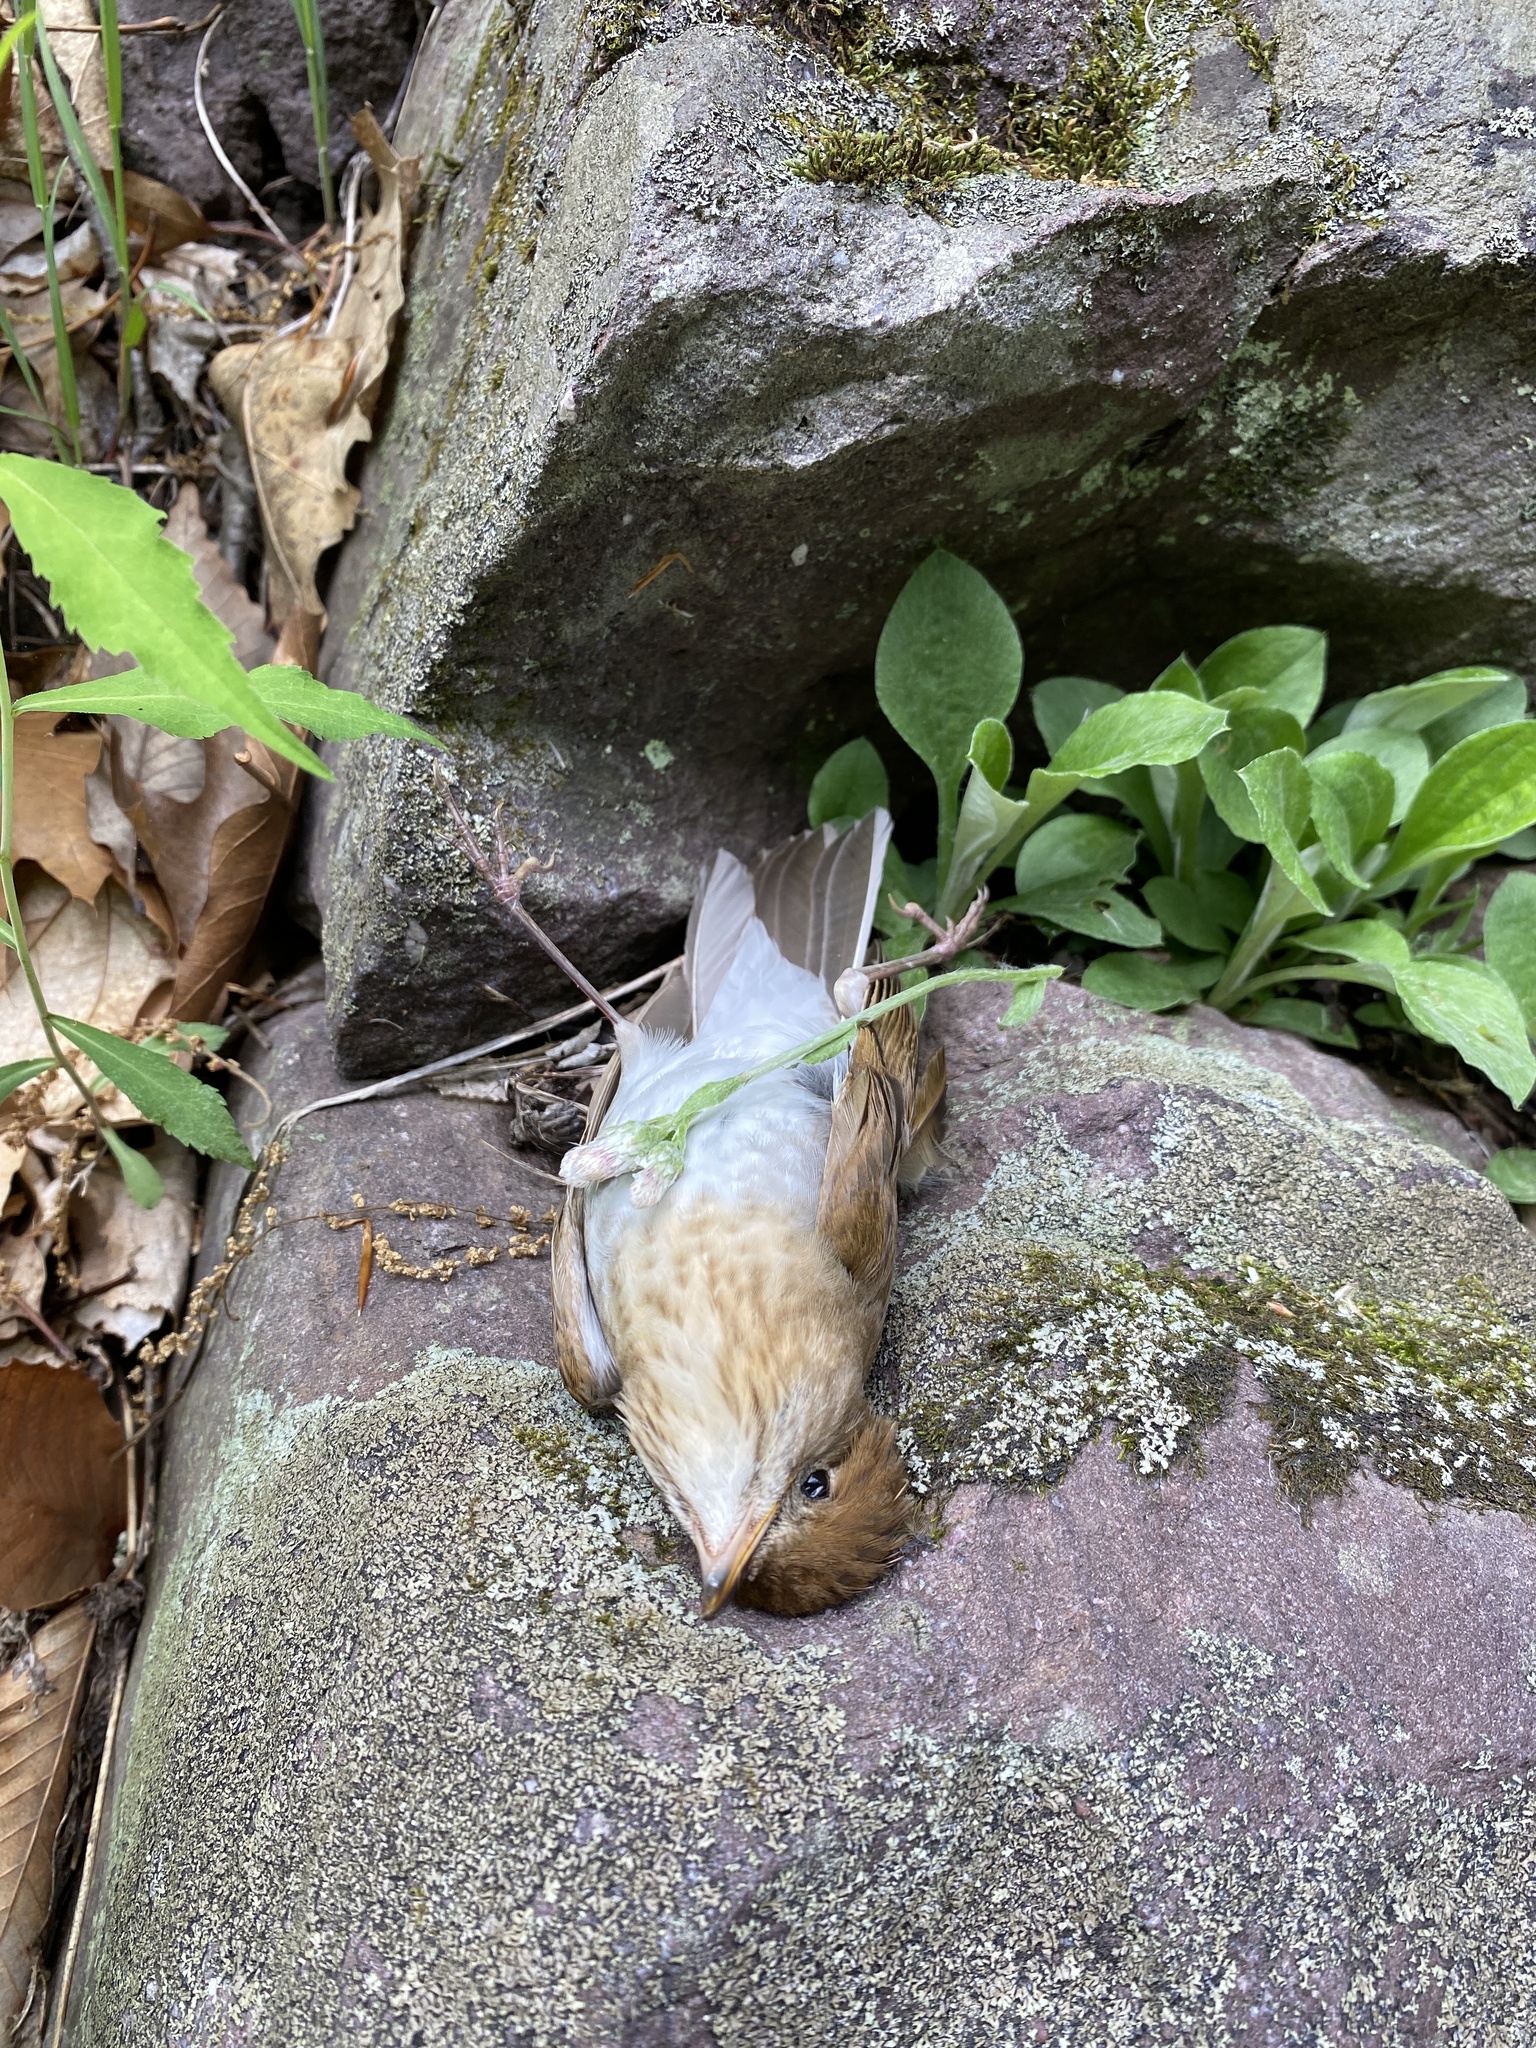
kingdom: Animalia
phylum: Chordata
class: Aves
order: Passeriformes
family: Turdidae
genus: Catharus
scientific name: Catharus fuscescens
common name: Veery
